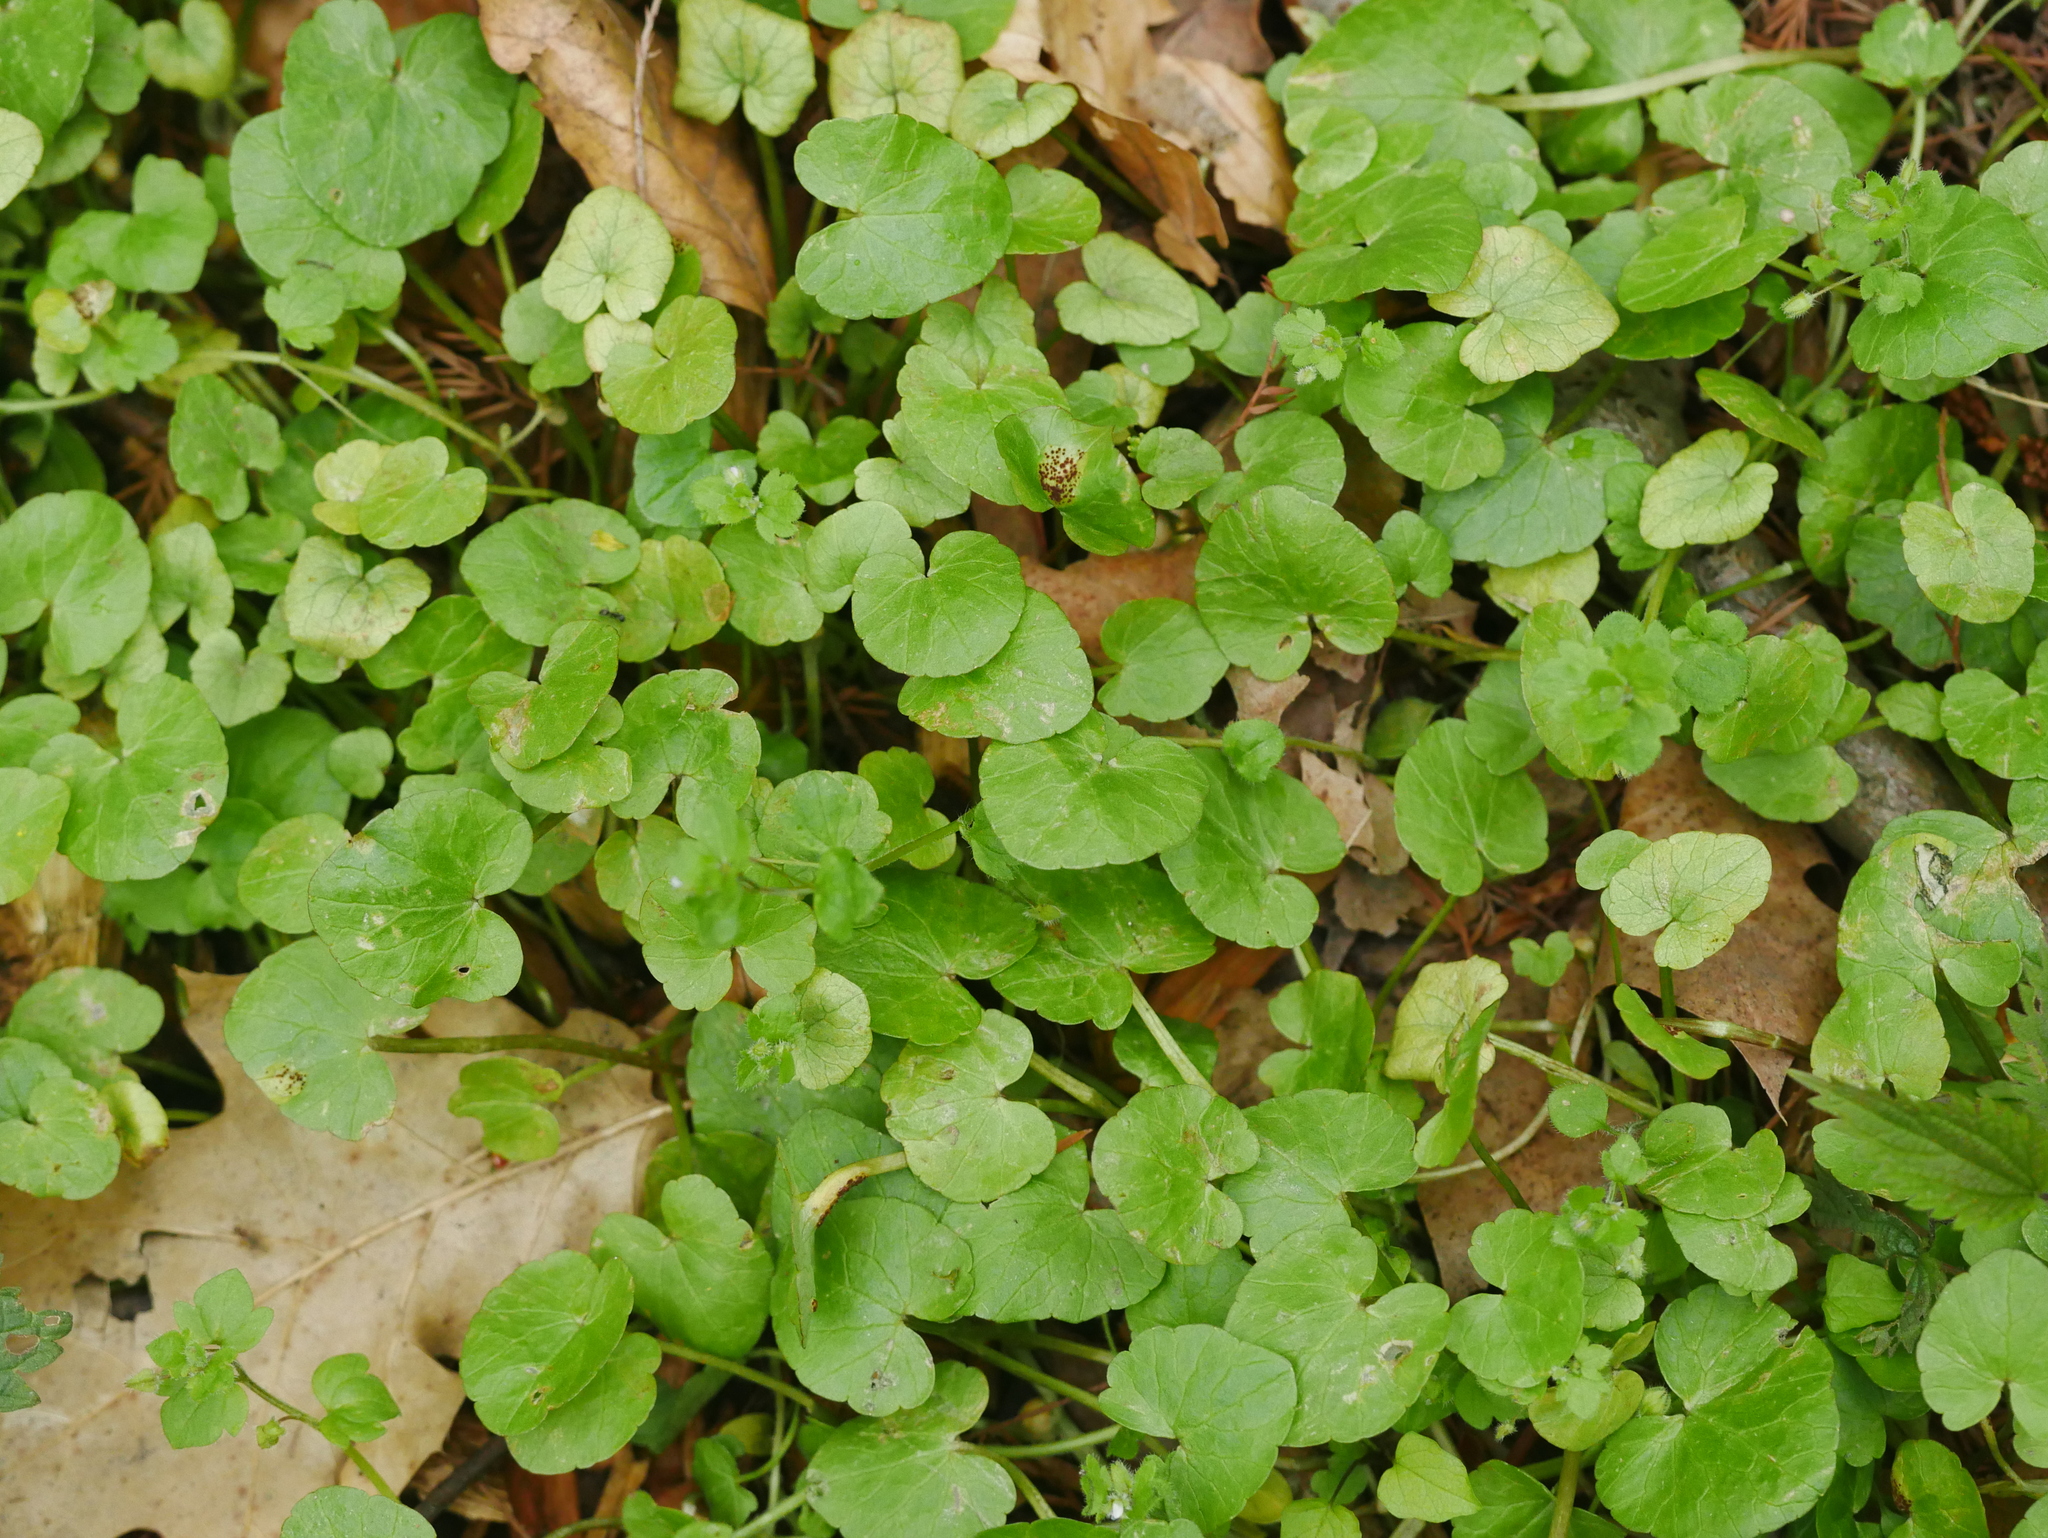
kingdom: Plantae
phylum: Tracheophyta
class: Magnoliopsida
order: Ranunculales
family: Ranunculaceae
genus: Ficaria
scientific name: Ficaria verna
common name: Lesser celandine
